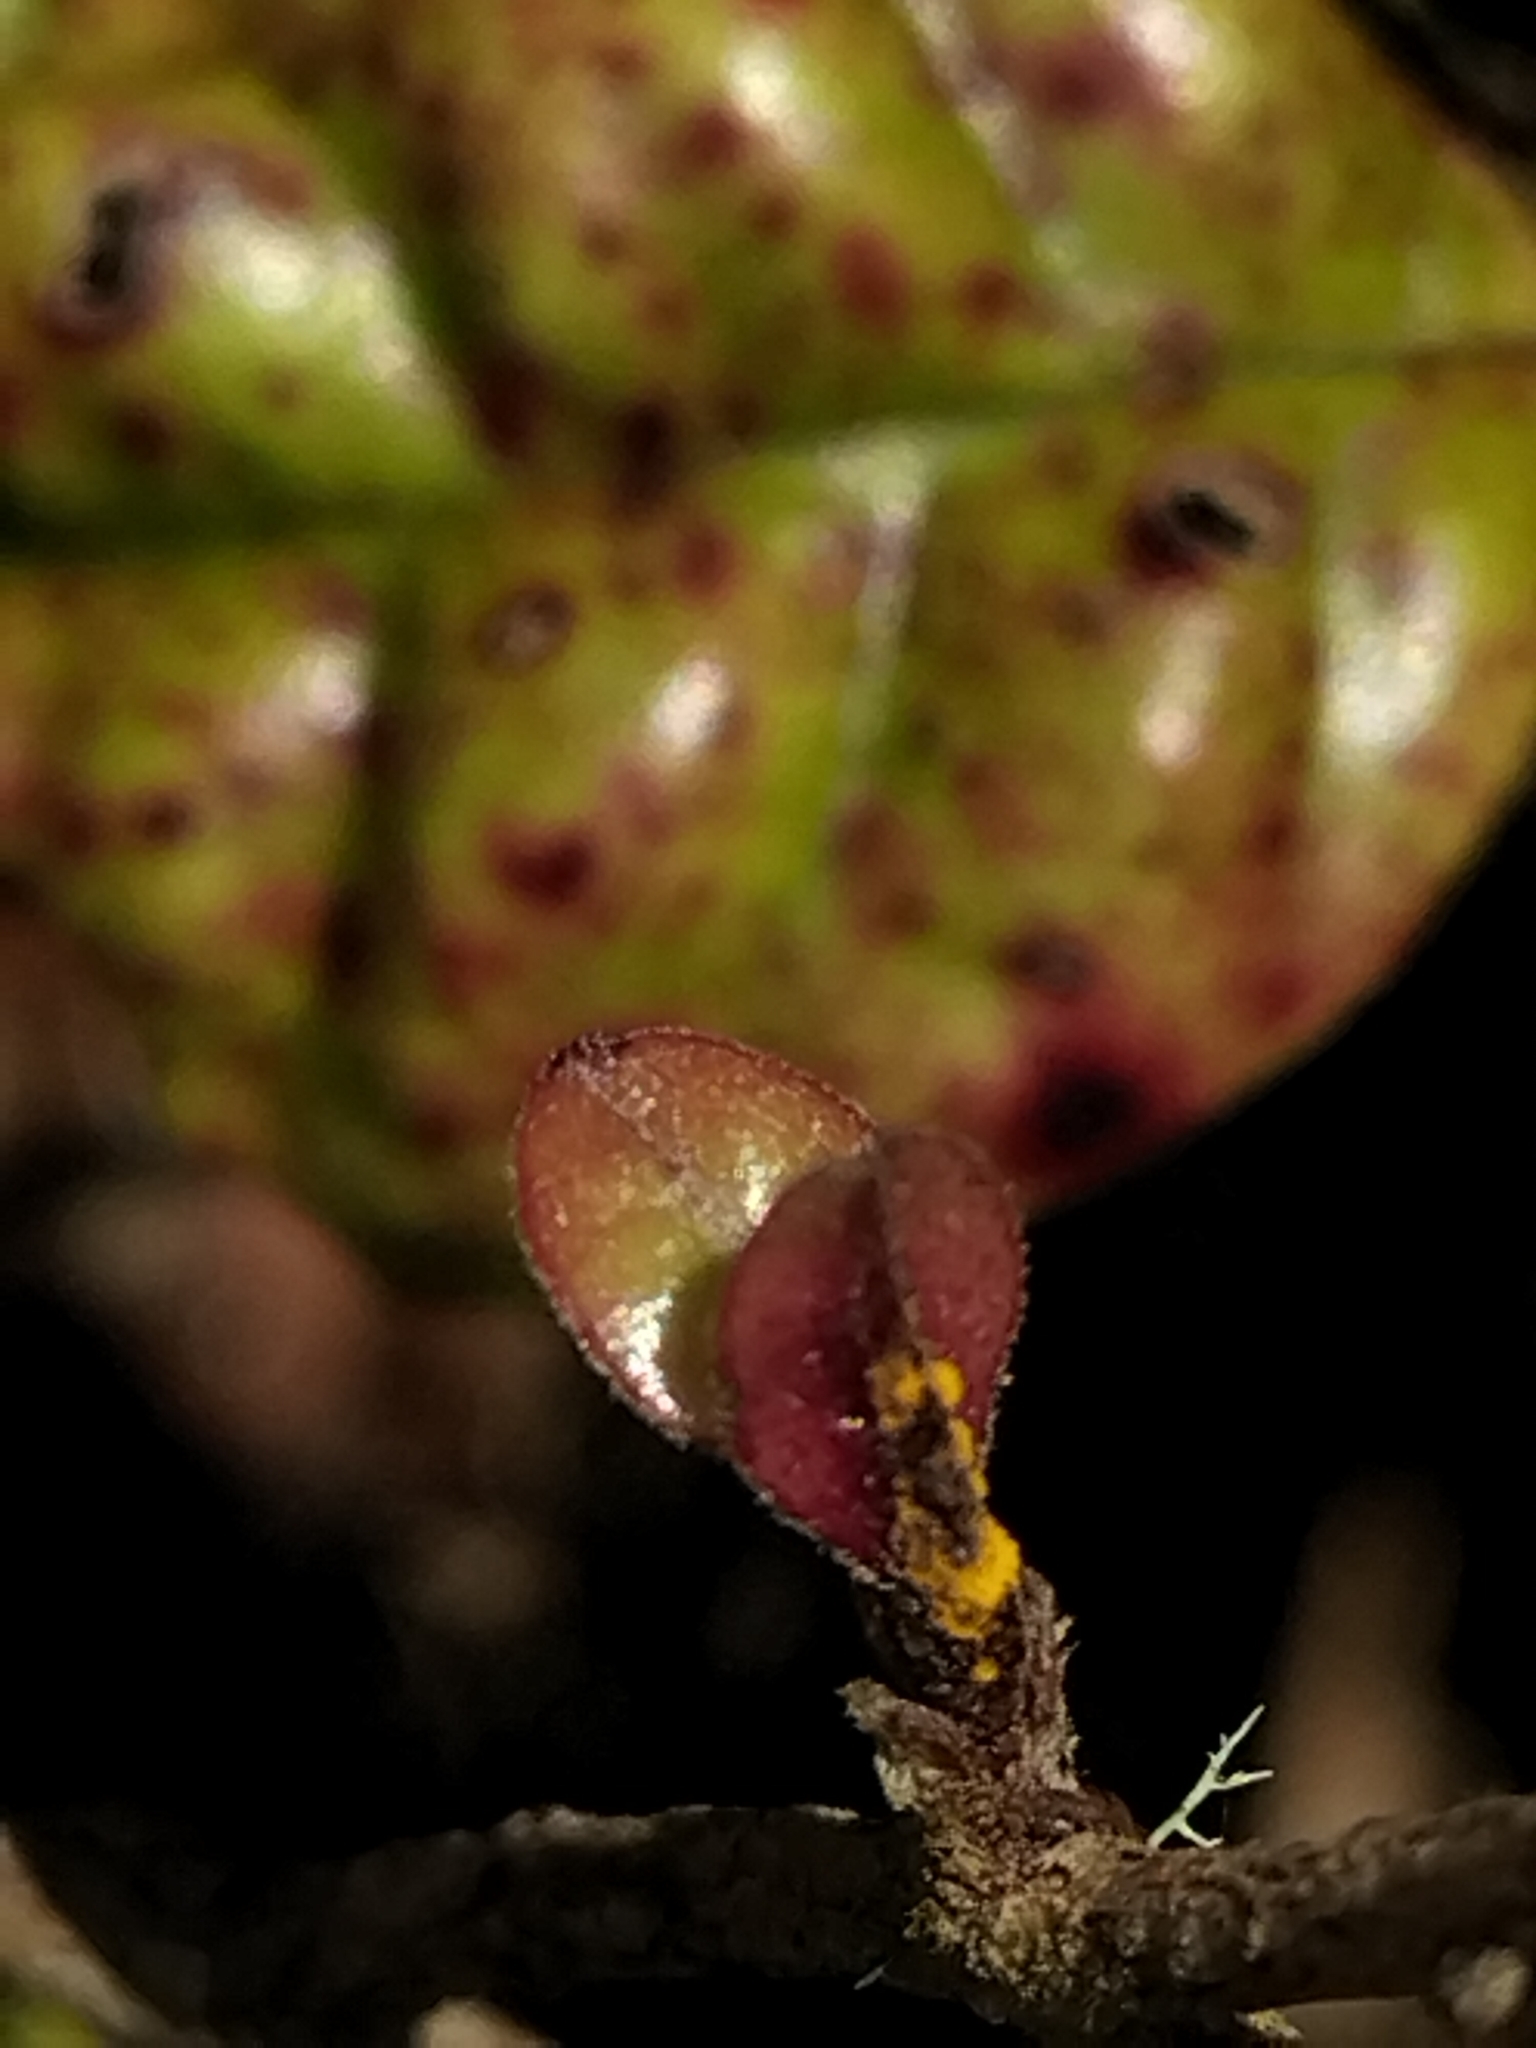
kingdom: Fungi
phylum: Basidiomycota
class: Pucciniomycetes
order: Pucciniales
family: Sphaerophragmiaceae
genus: Austropuccinia
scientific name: Austropuccinia psidii
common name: Myrtle rust
